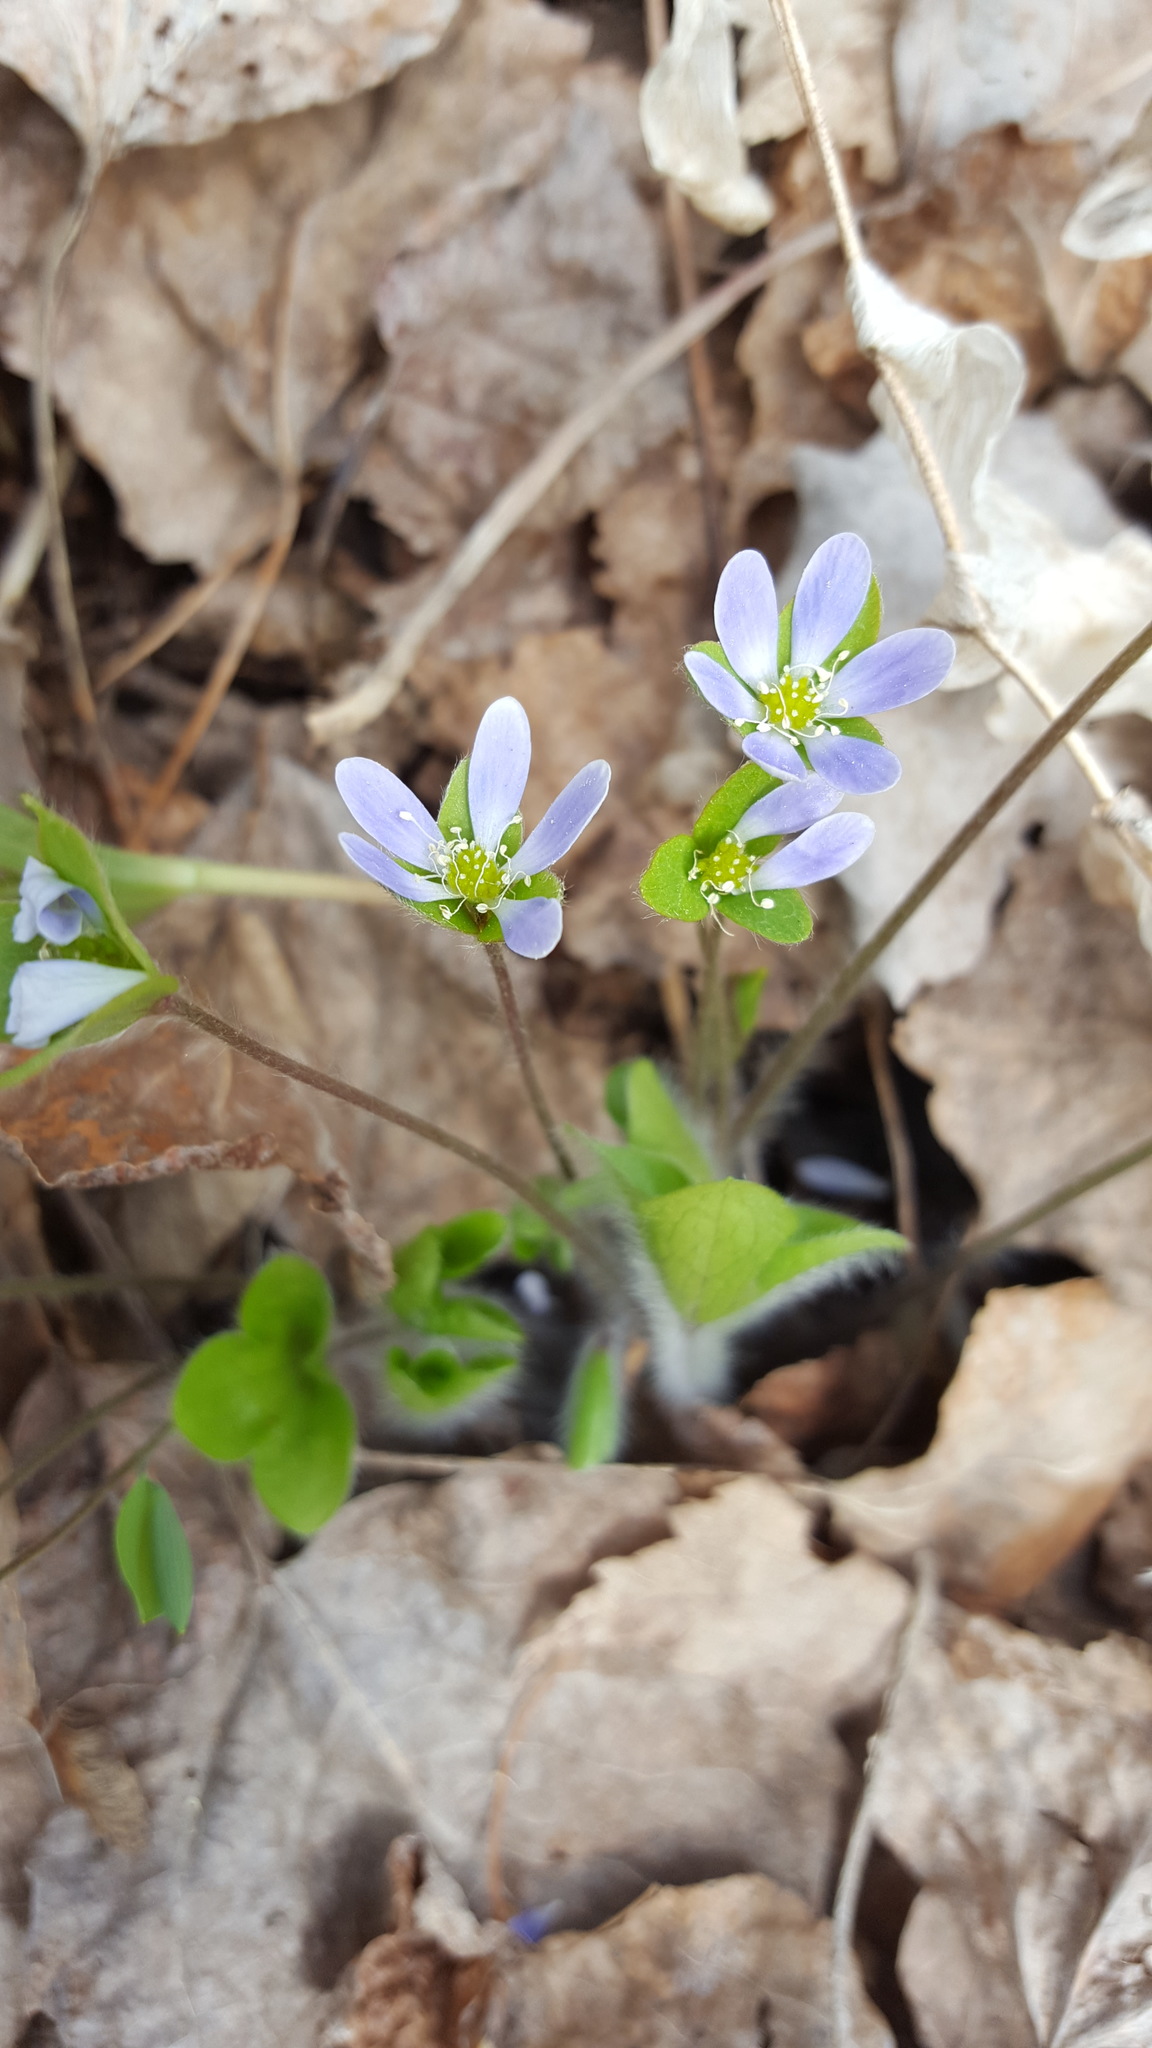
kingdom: Plantae
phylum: Tracheophyta
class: Magnoliopsida
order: Ranunculales
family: Ranunculaceae
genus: Hepatica
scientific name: Hepatica americana
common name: American hepatica
